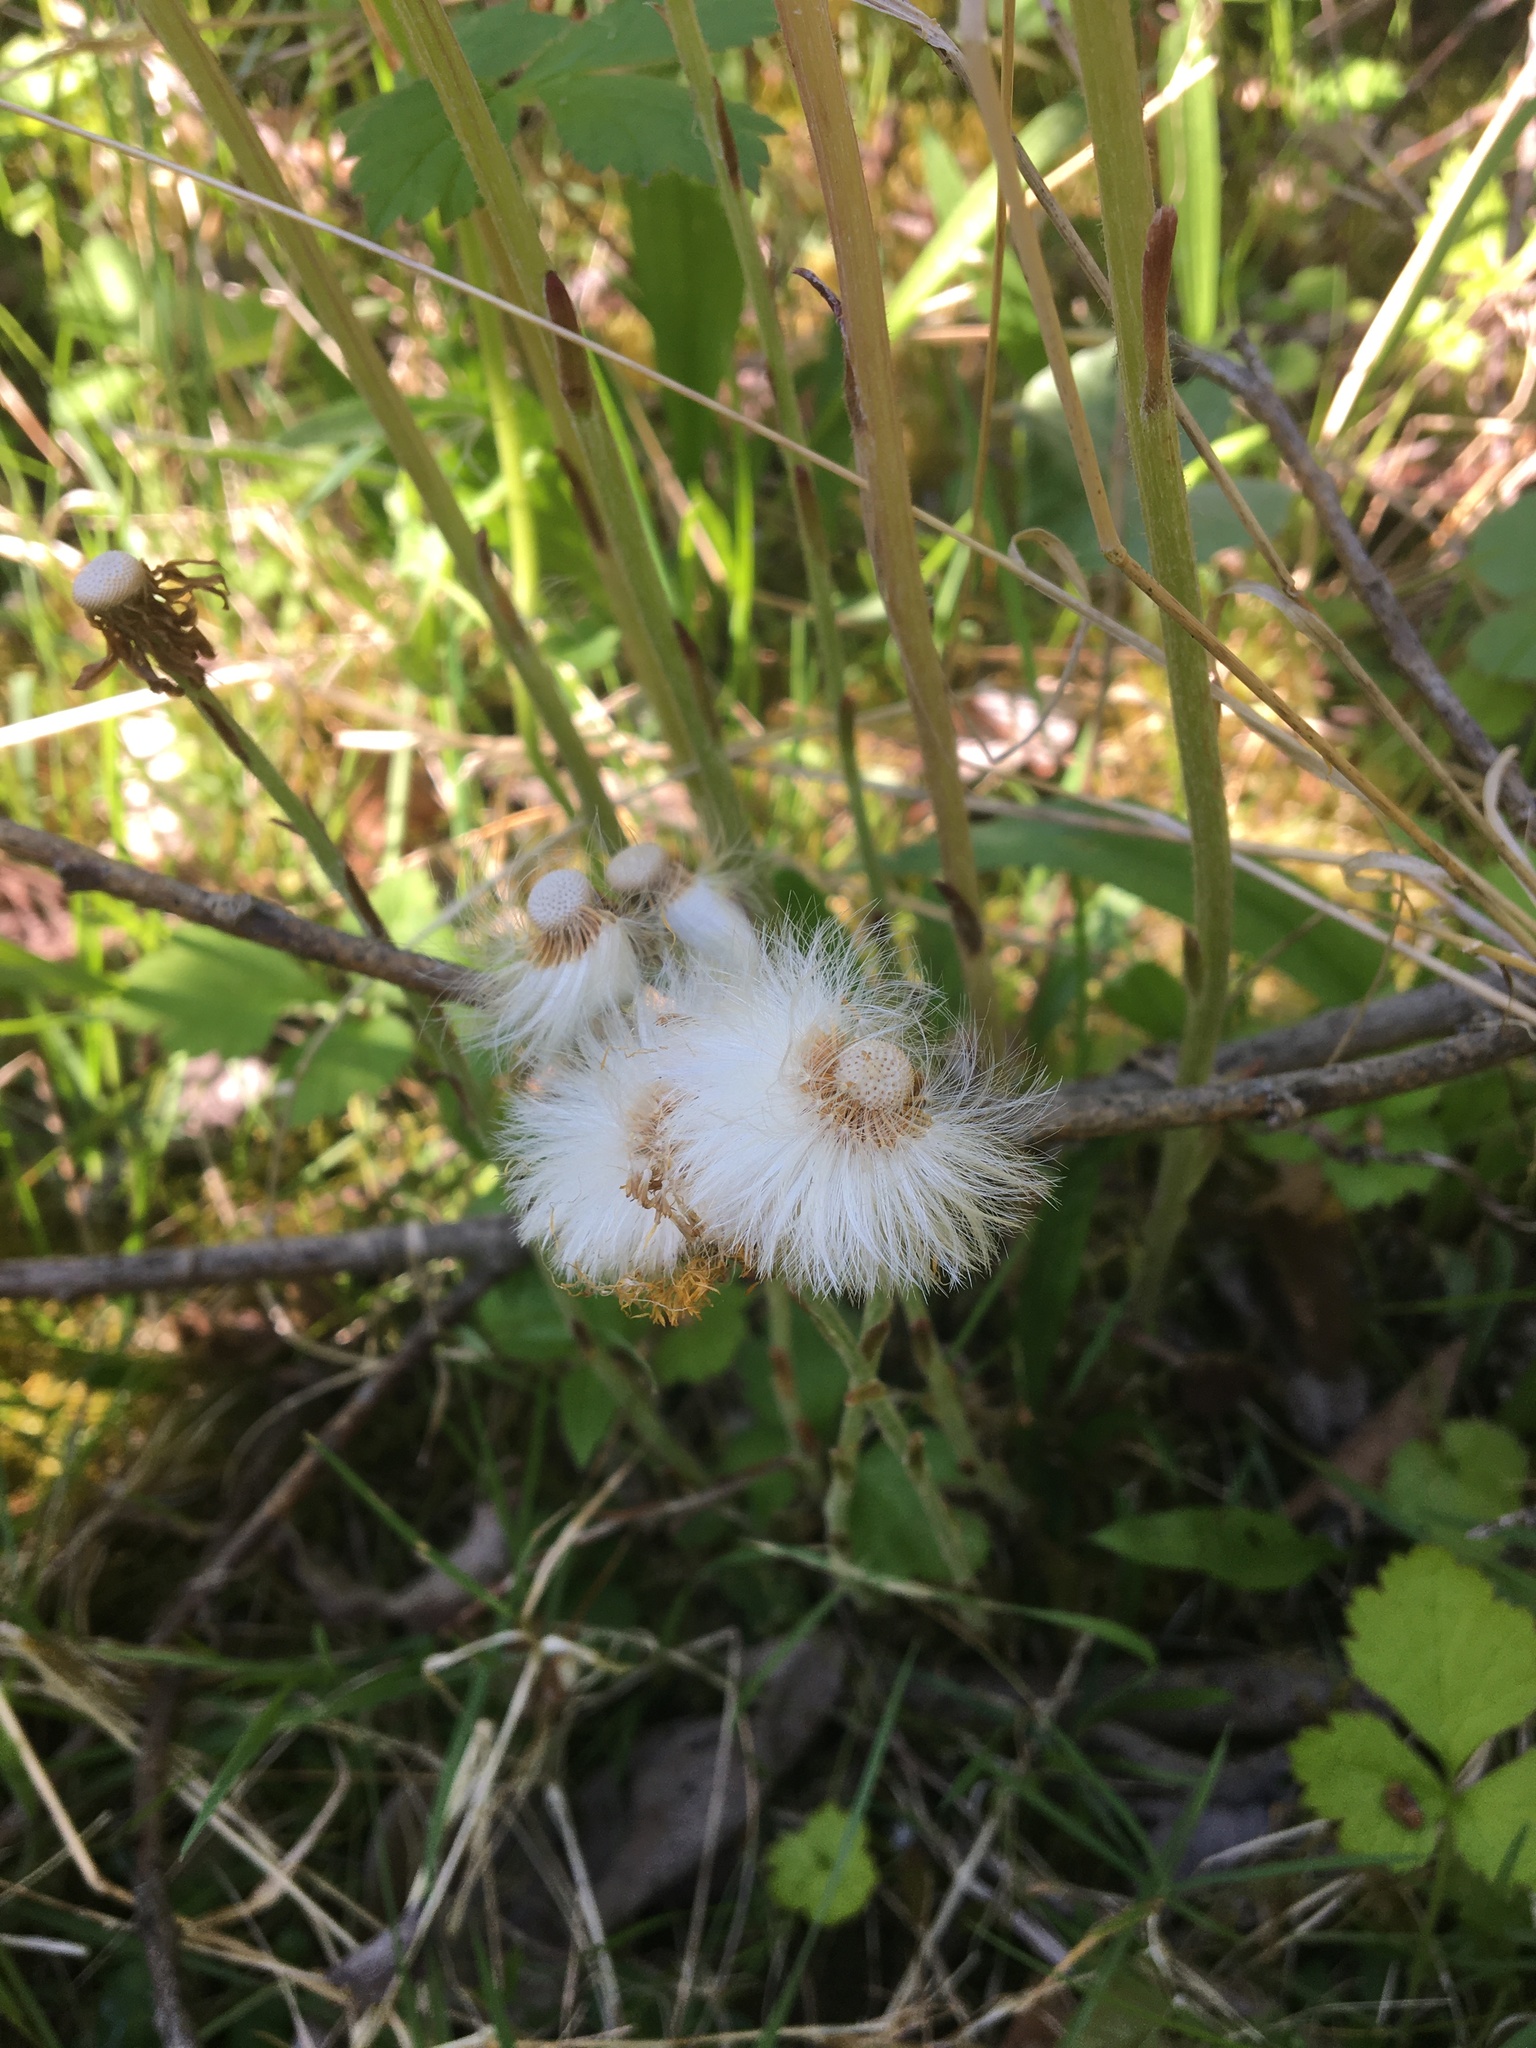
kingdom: Plantae
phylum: Tracheophyta
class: Magnoliopsida
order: Asterales
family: Asteraceae
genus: Tussilago
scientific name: Tussilago farfara
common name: Coltsfoot
